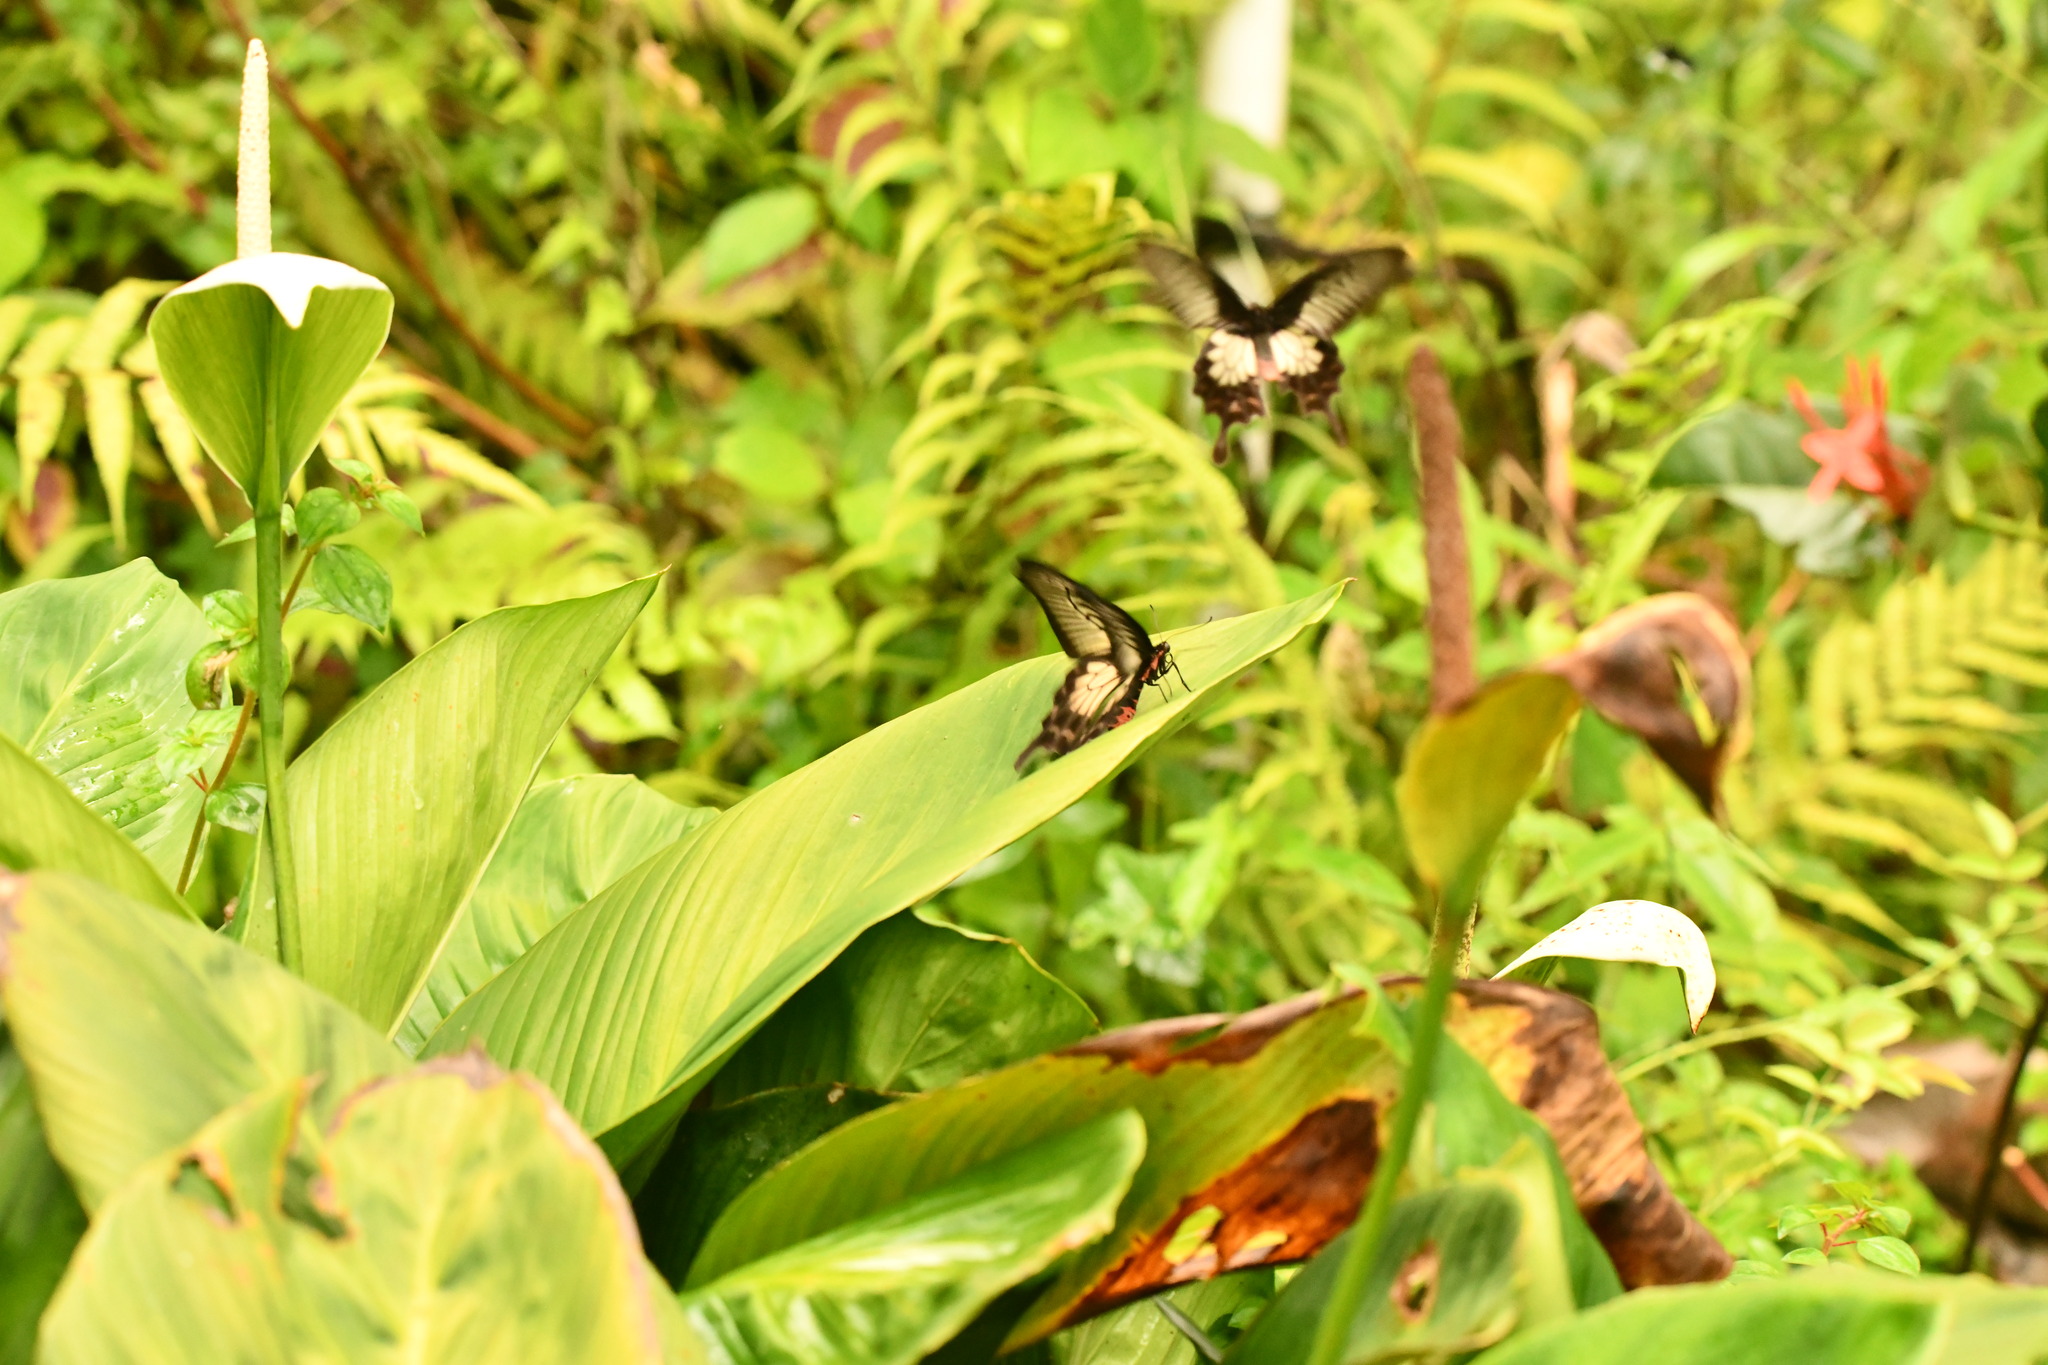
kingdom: Animalia
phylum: Arthropoda
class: Insecta
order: Lepidoptera
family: Papilionidae
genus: Pachliopta
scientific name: Pachliopta pandiyana
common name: Malabar rose
